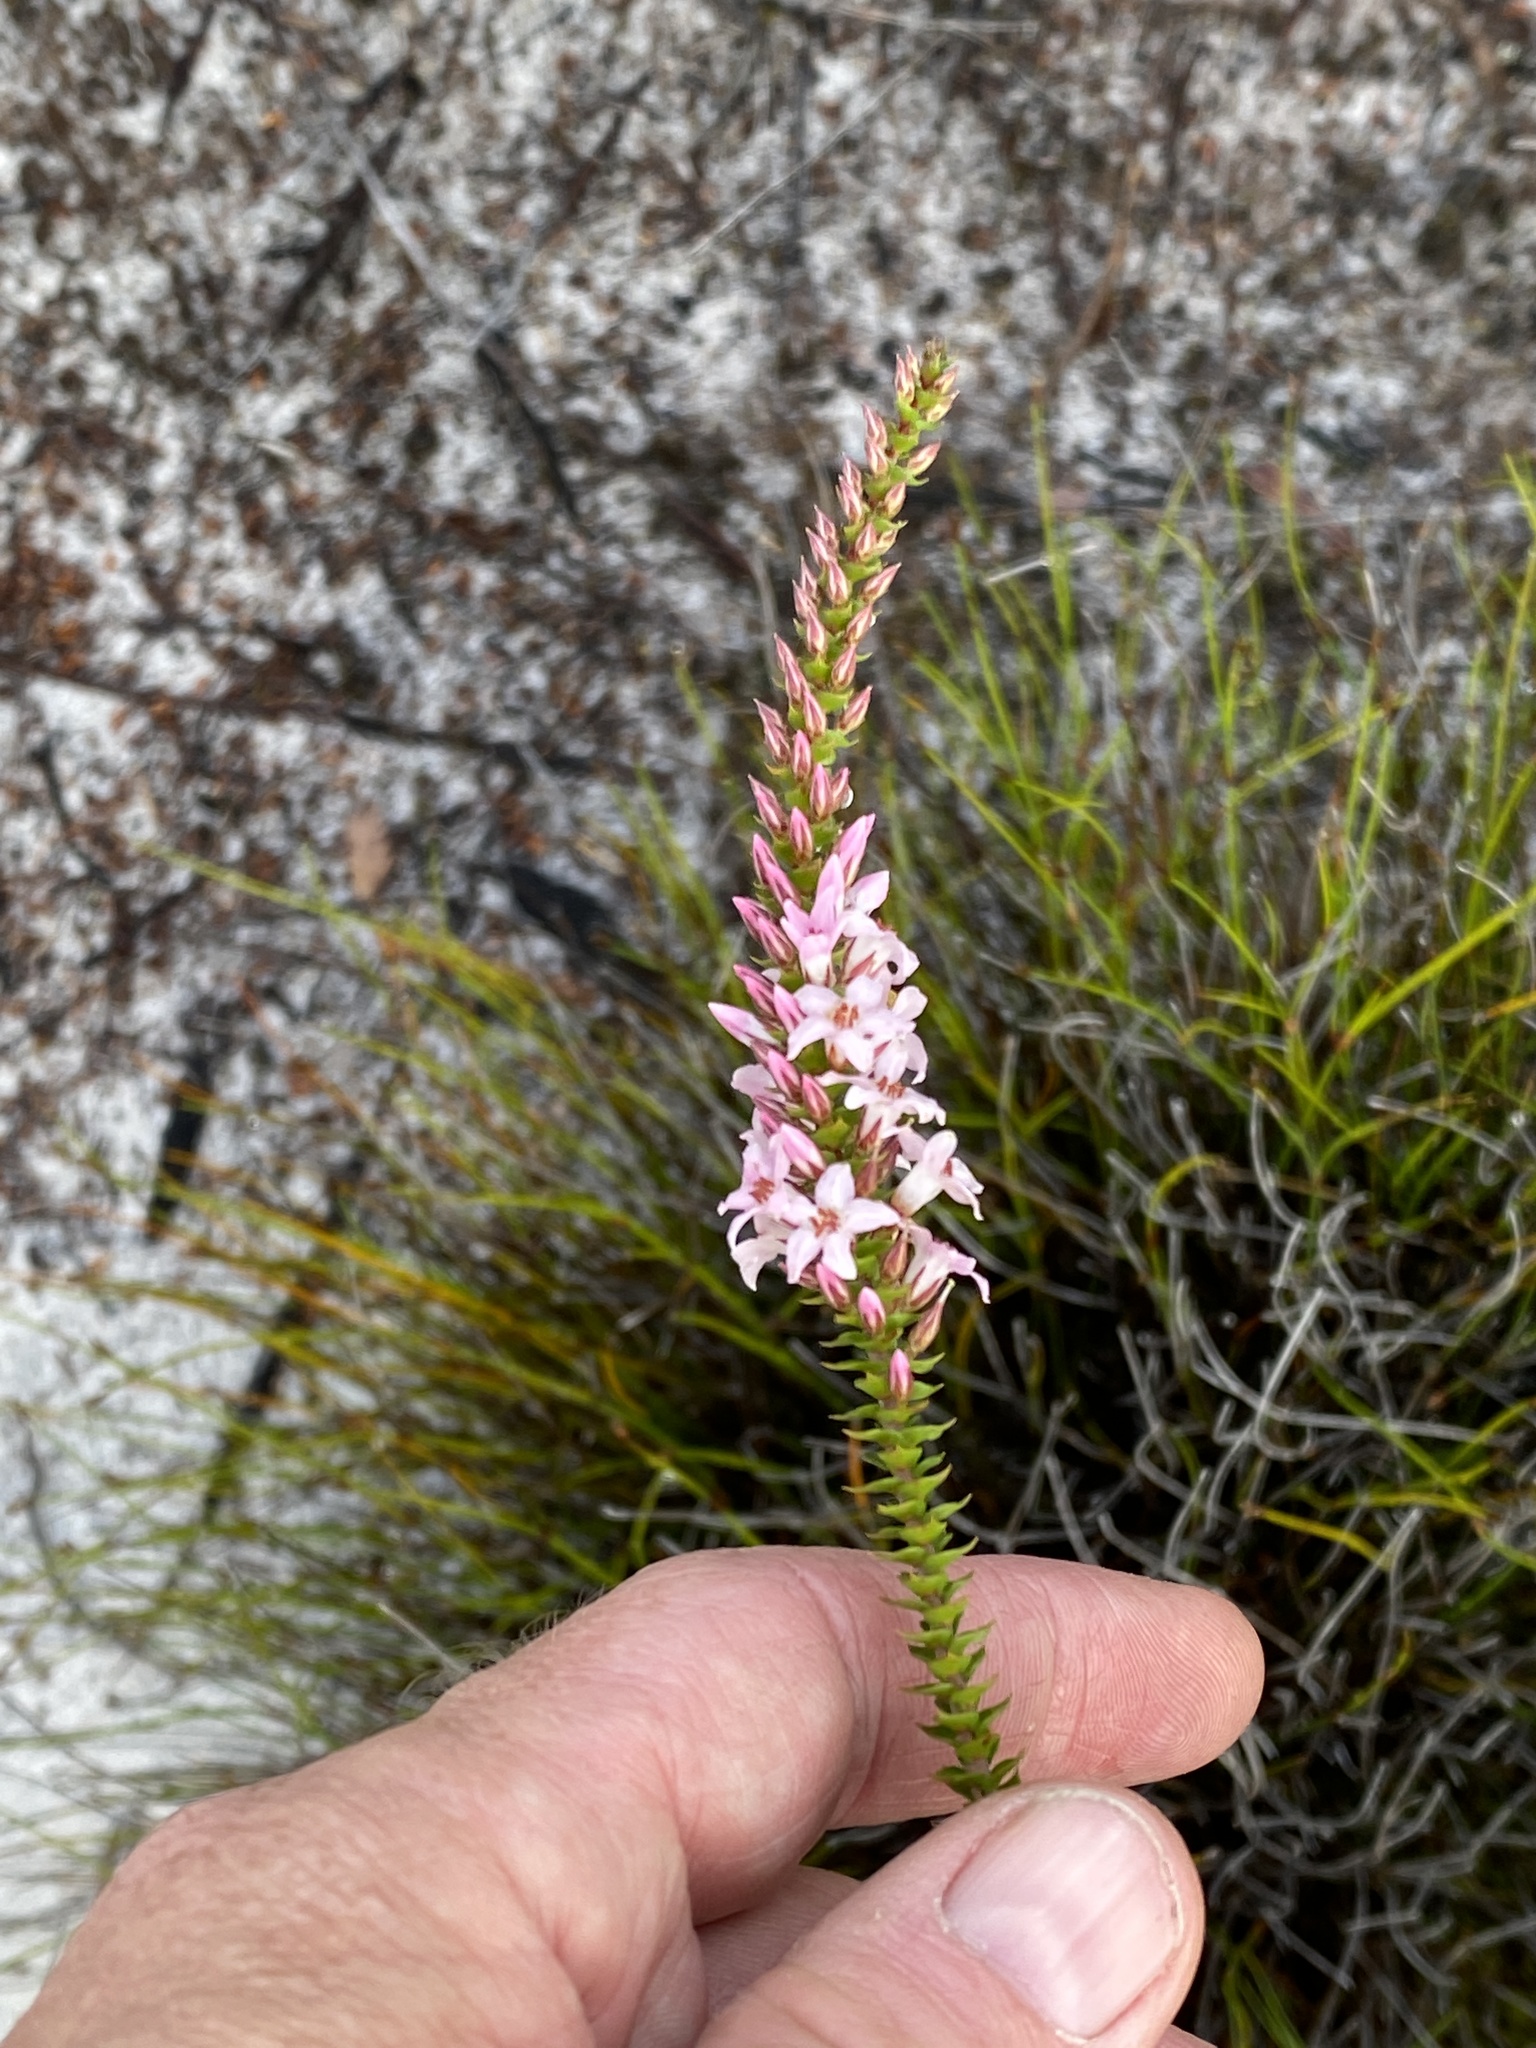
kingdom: Plantae
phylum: Tracheophyta
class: Magnoliopsida
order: Ericales
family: Ericaceae
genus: Epacris
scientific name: Epacris pulchella
